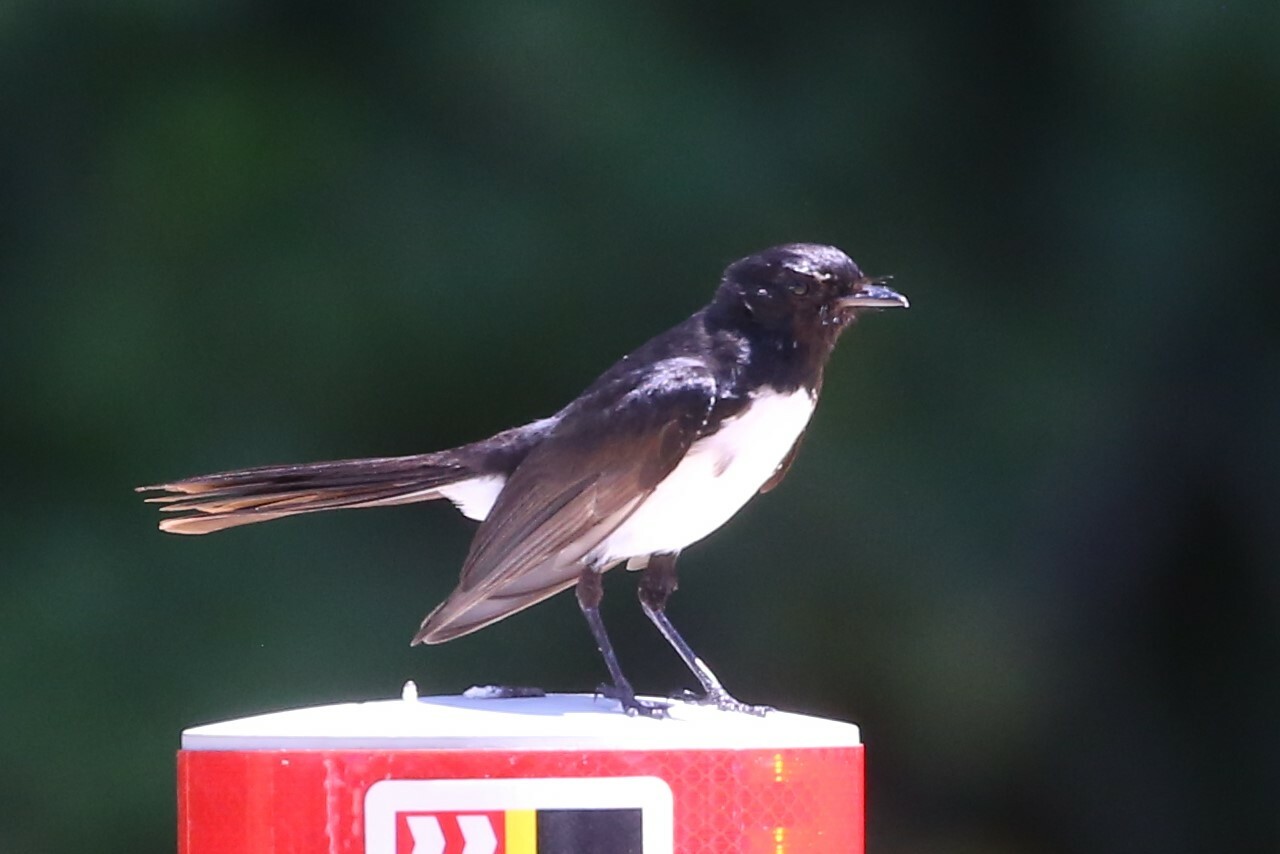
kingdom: Animalia
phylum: Chordata
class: Aves
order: Passeriformes
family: Rhipiduridae
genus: Rhipidura
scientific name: Rhipidura leucophrys
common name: Willie wagtail
